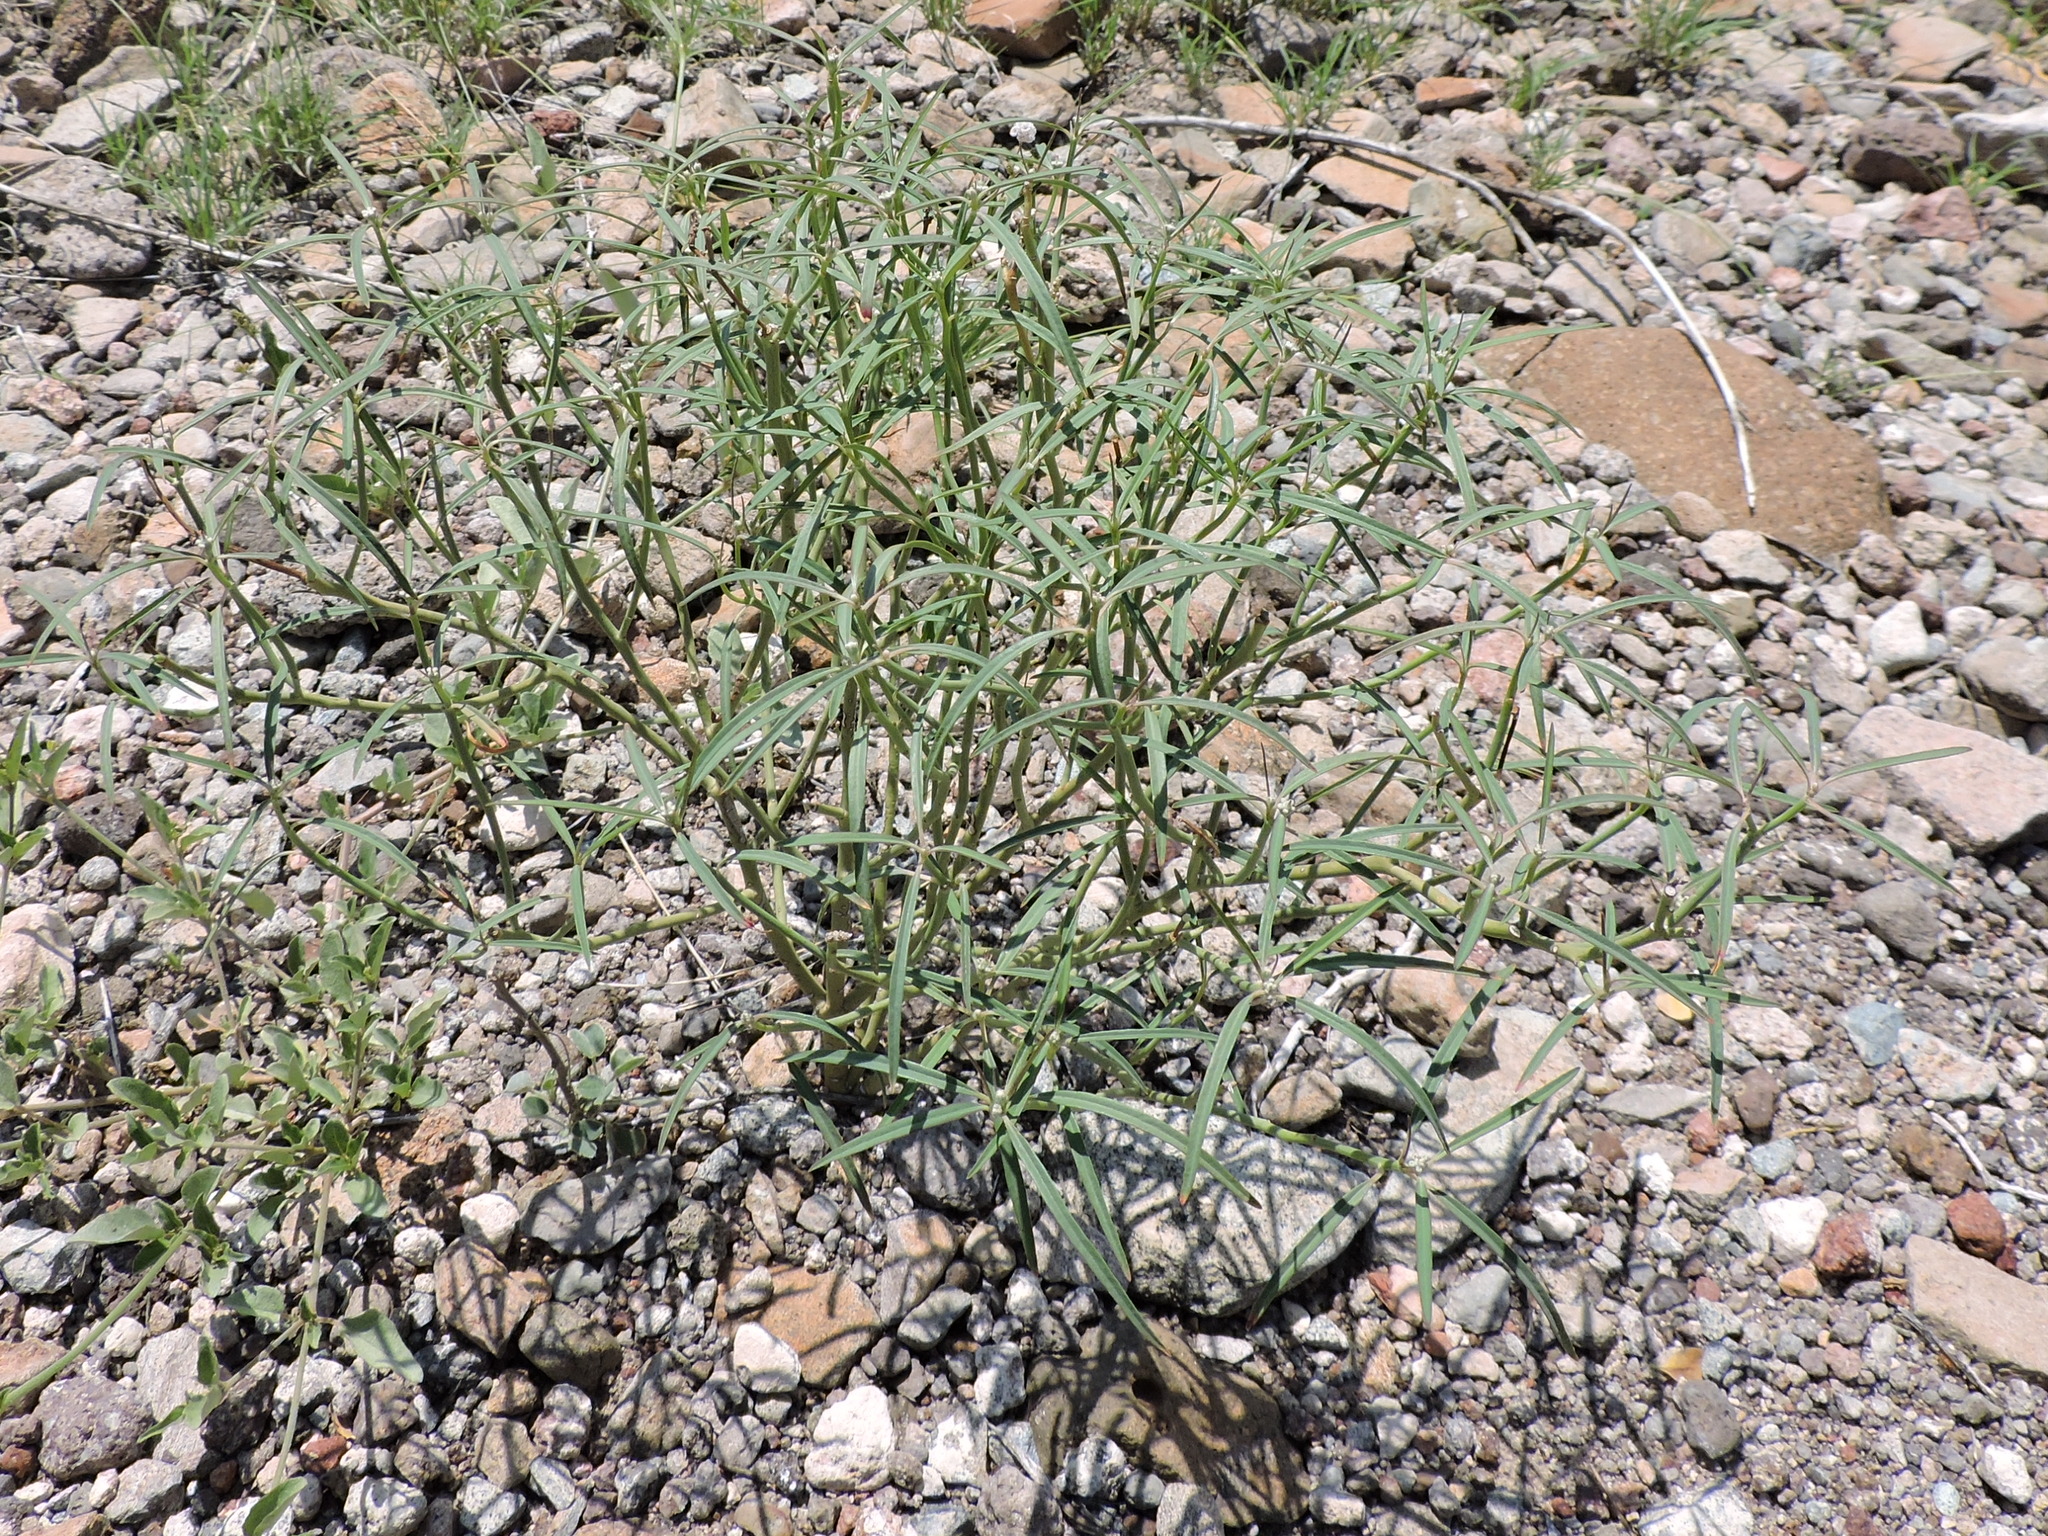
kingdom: Plantae
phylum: Tracheophyta
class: Magnoliopsida
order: Malpighiales
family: Euphorbiaceae
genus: Euphorbia
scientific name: Euphorbia eriantha
